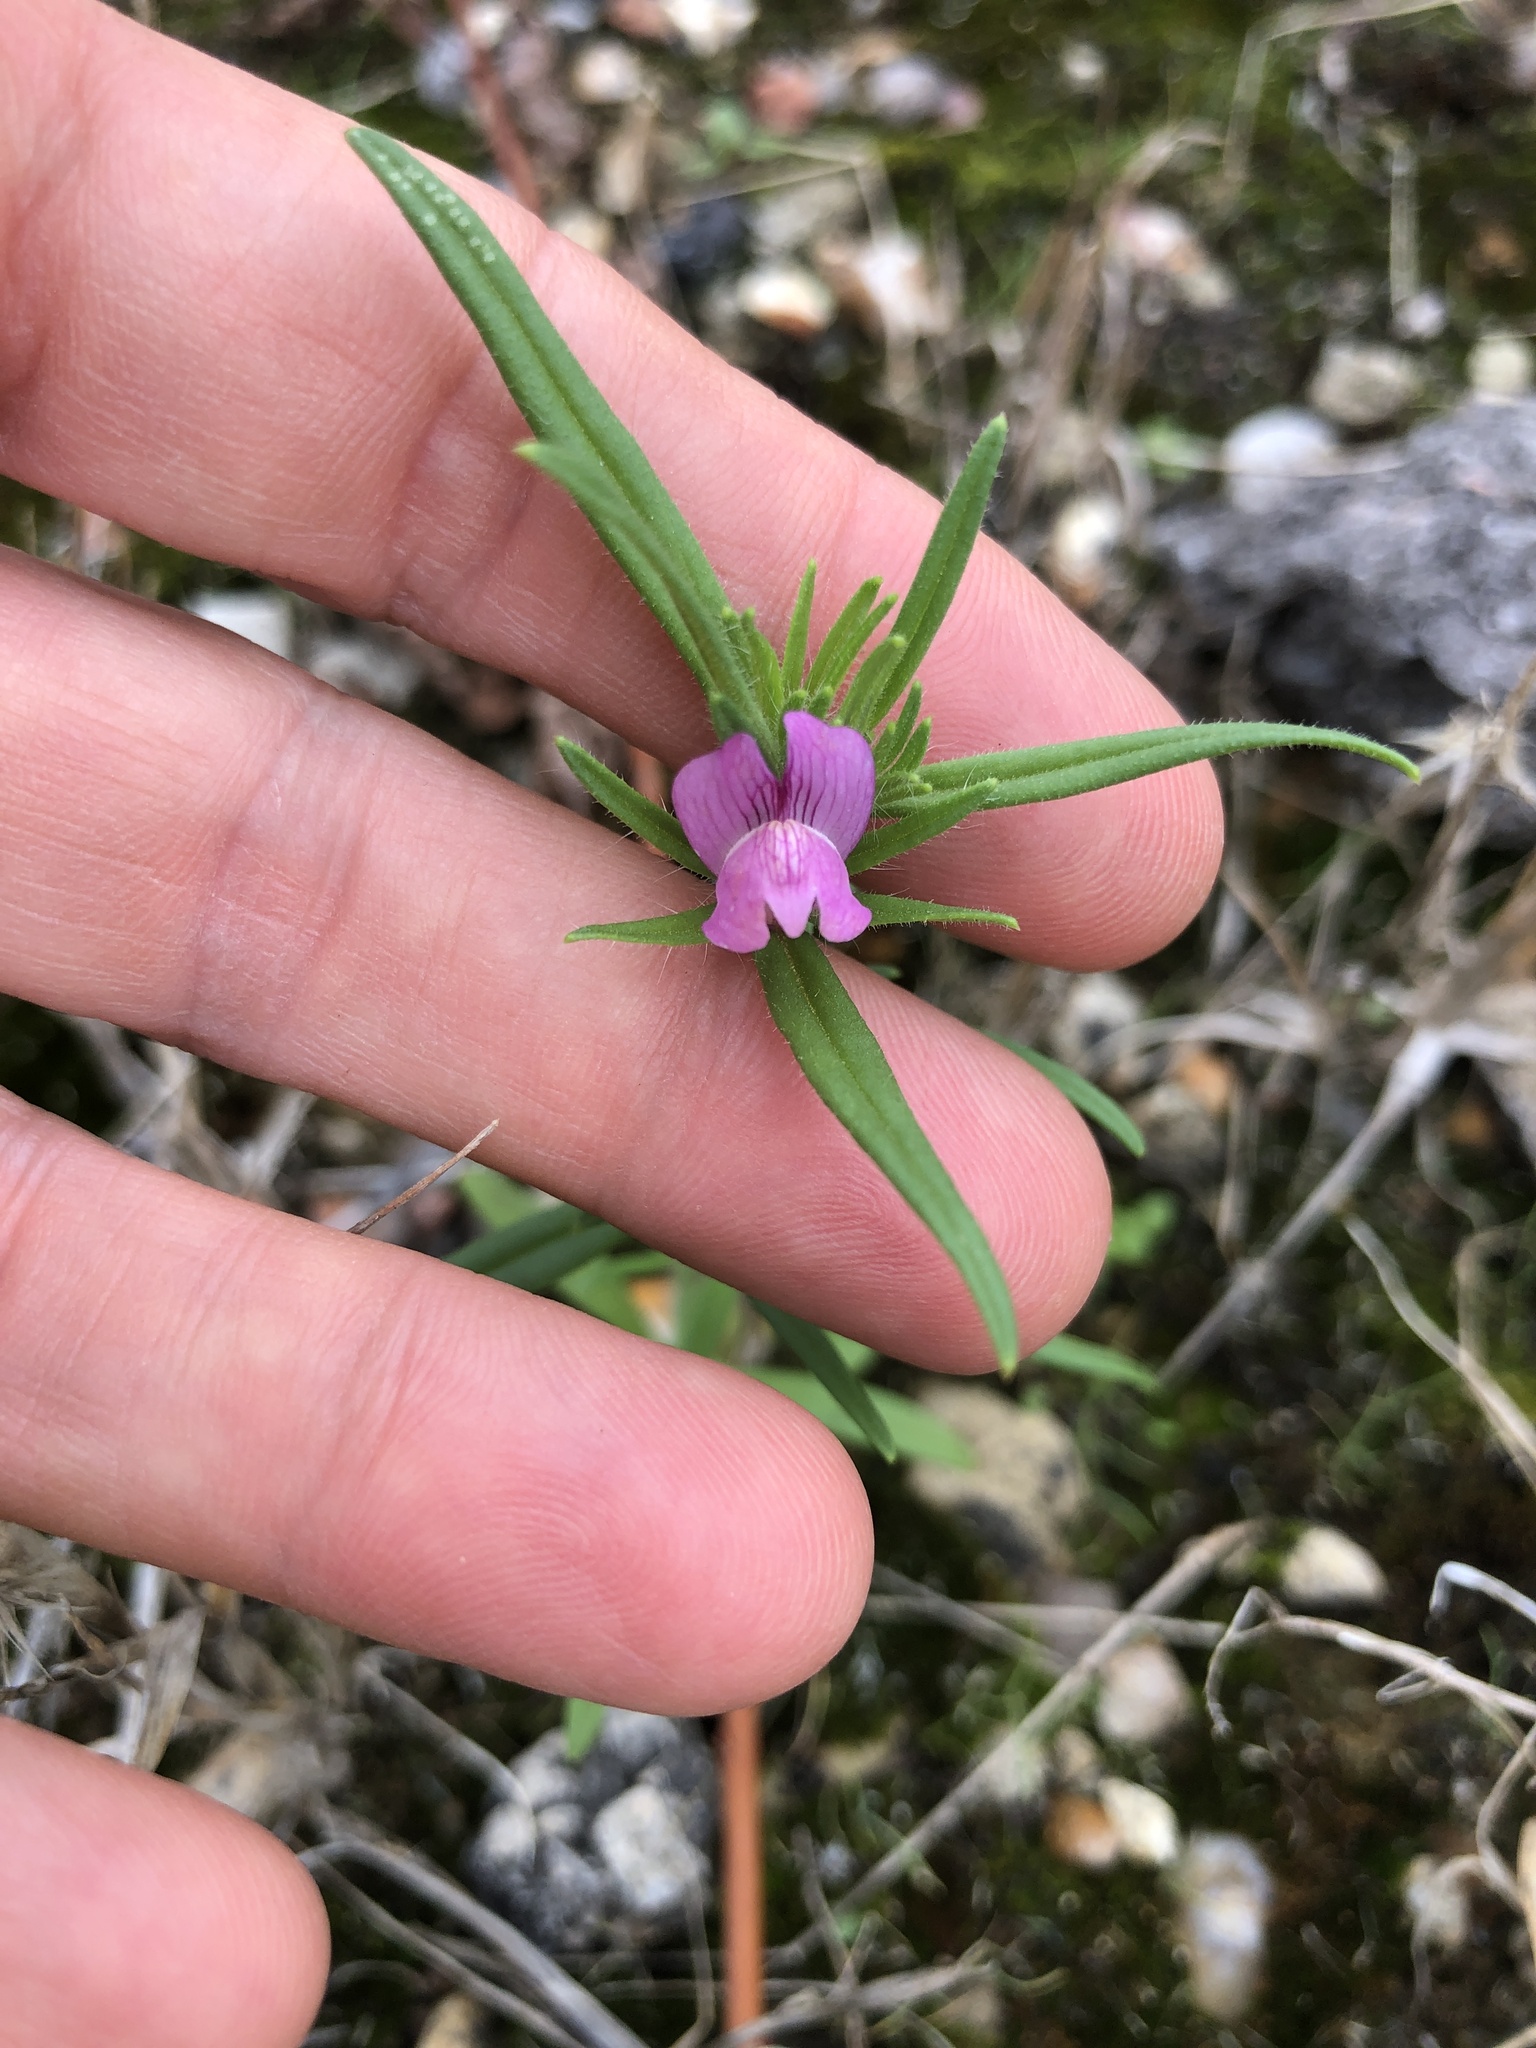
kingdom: Plantae
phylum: Tracheophyta
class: Magnoliopsida
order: Lamiales
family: Plantaginaceae
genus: Misopates
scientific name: Misopates orontium
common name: Weasel's-snout
